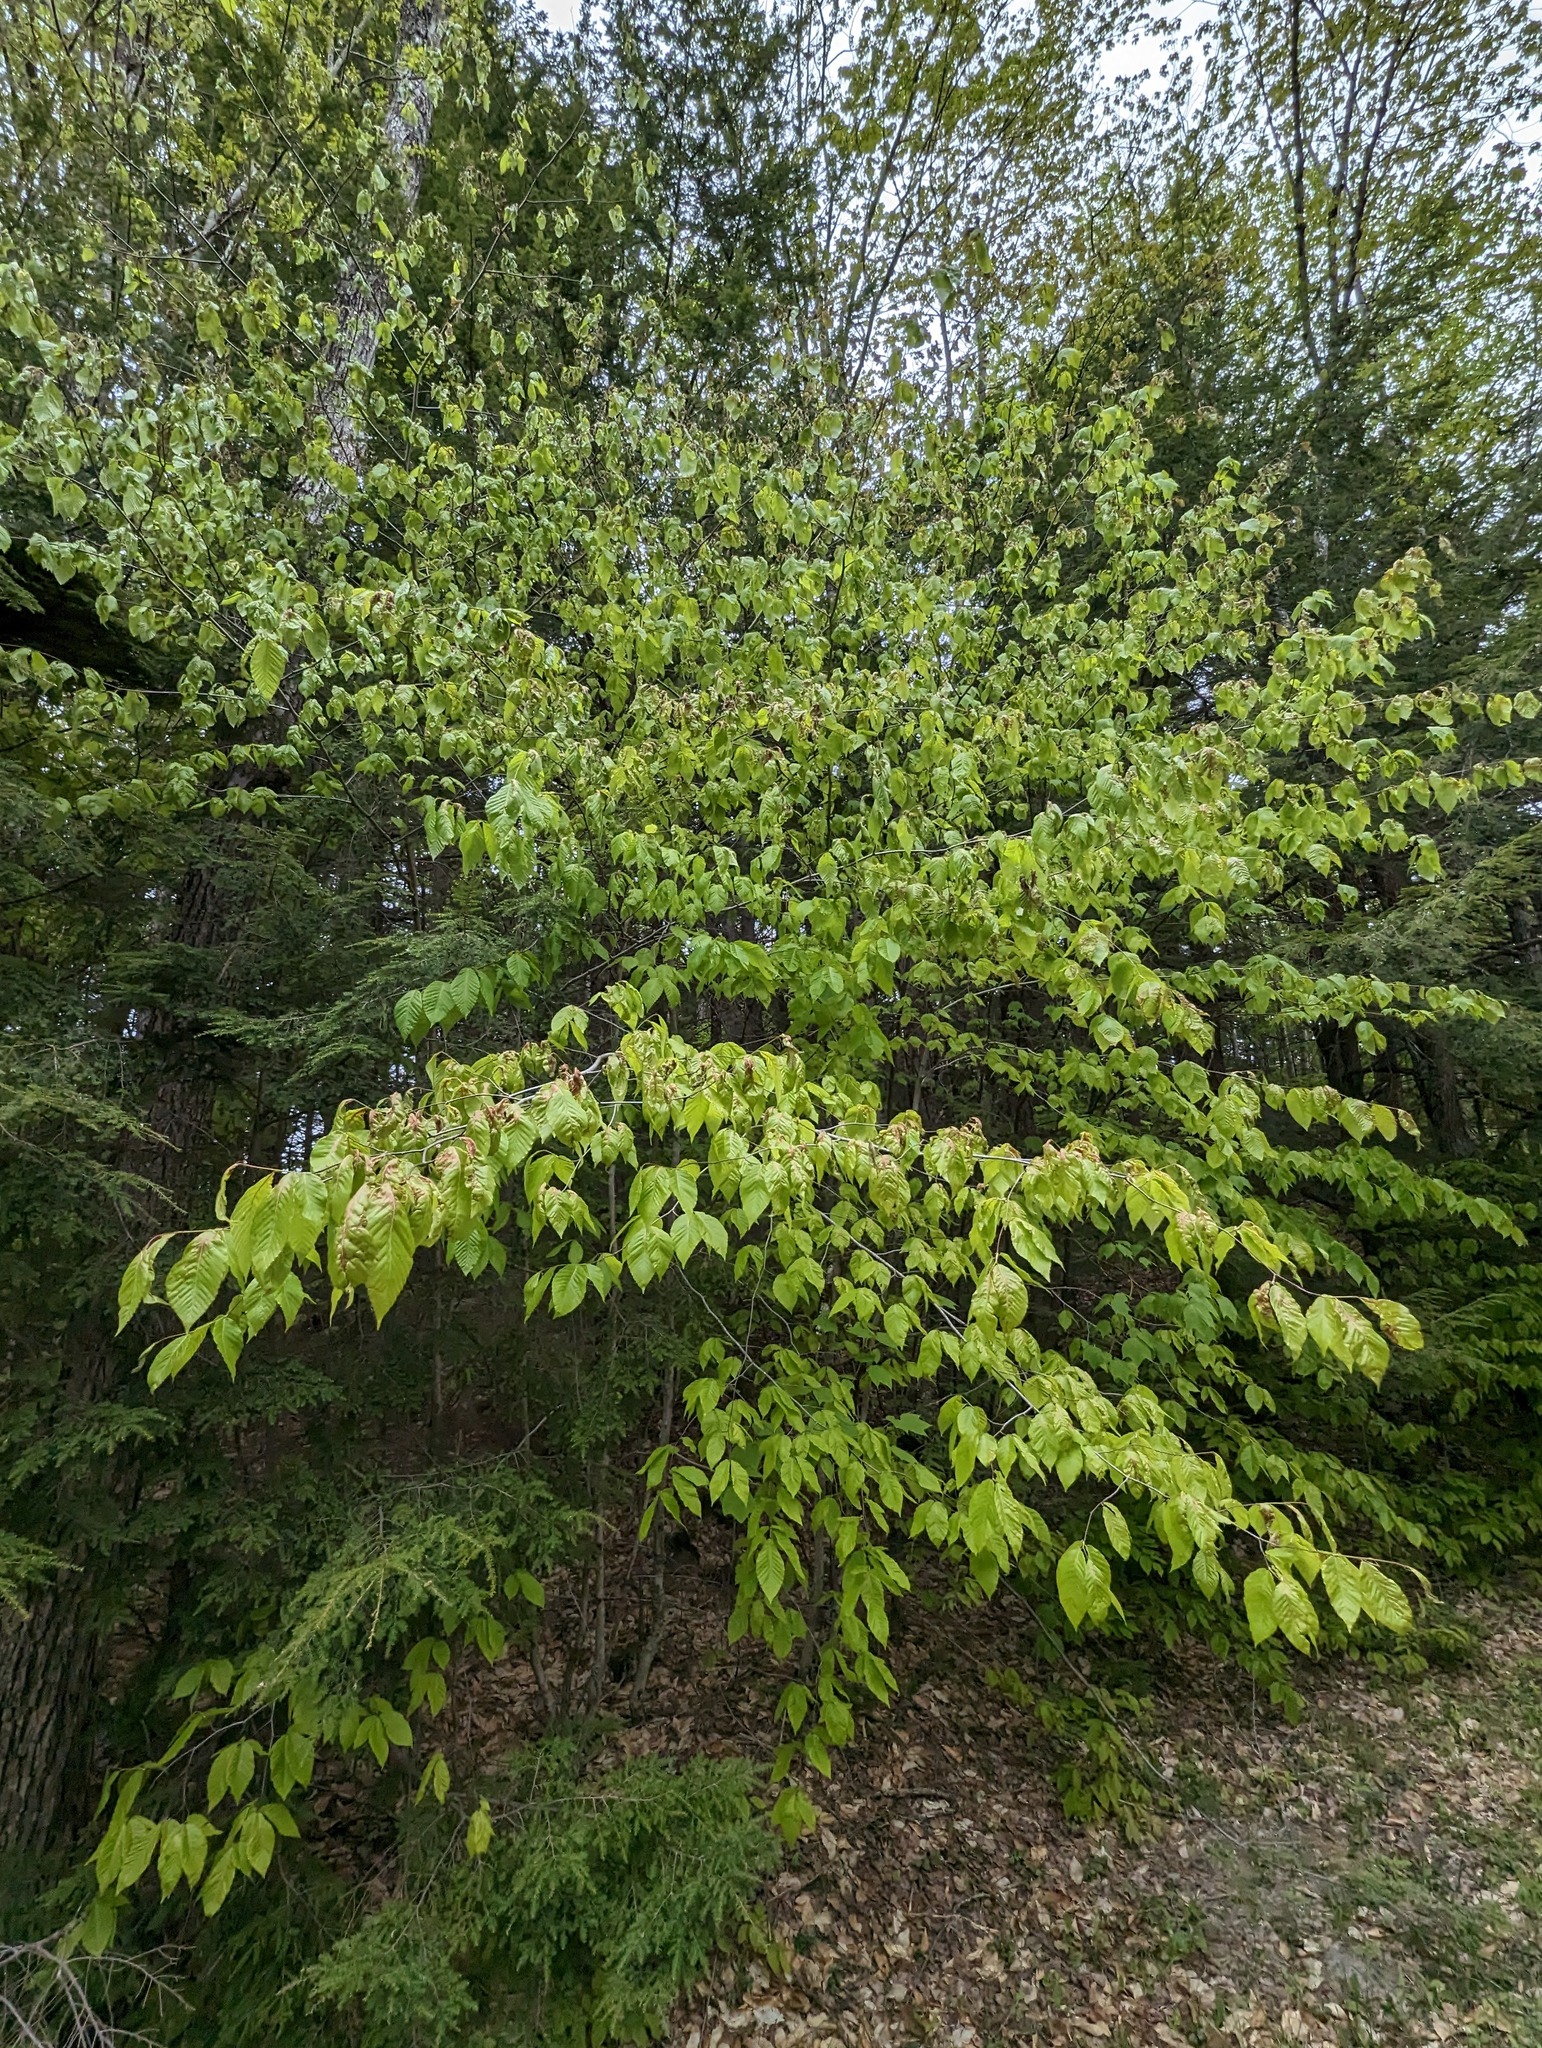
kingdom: Plantae
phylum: Tracheophyta
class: Magnoliopsida
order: Fagales
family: Fagaceae
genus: Fagus
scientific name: Fagus grandifolia
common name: American beech
